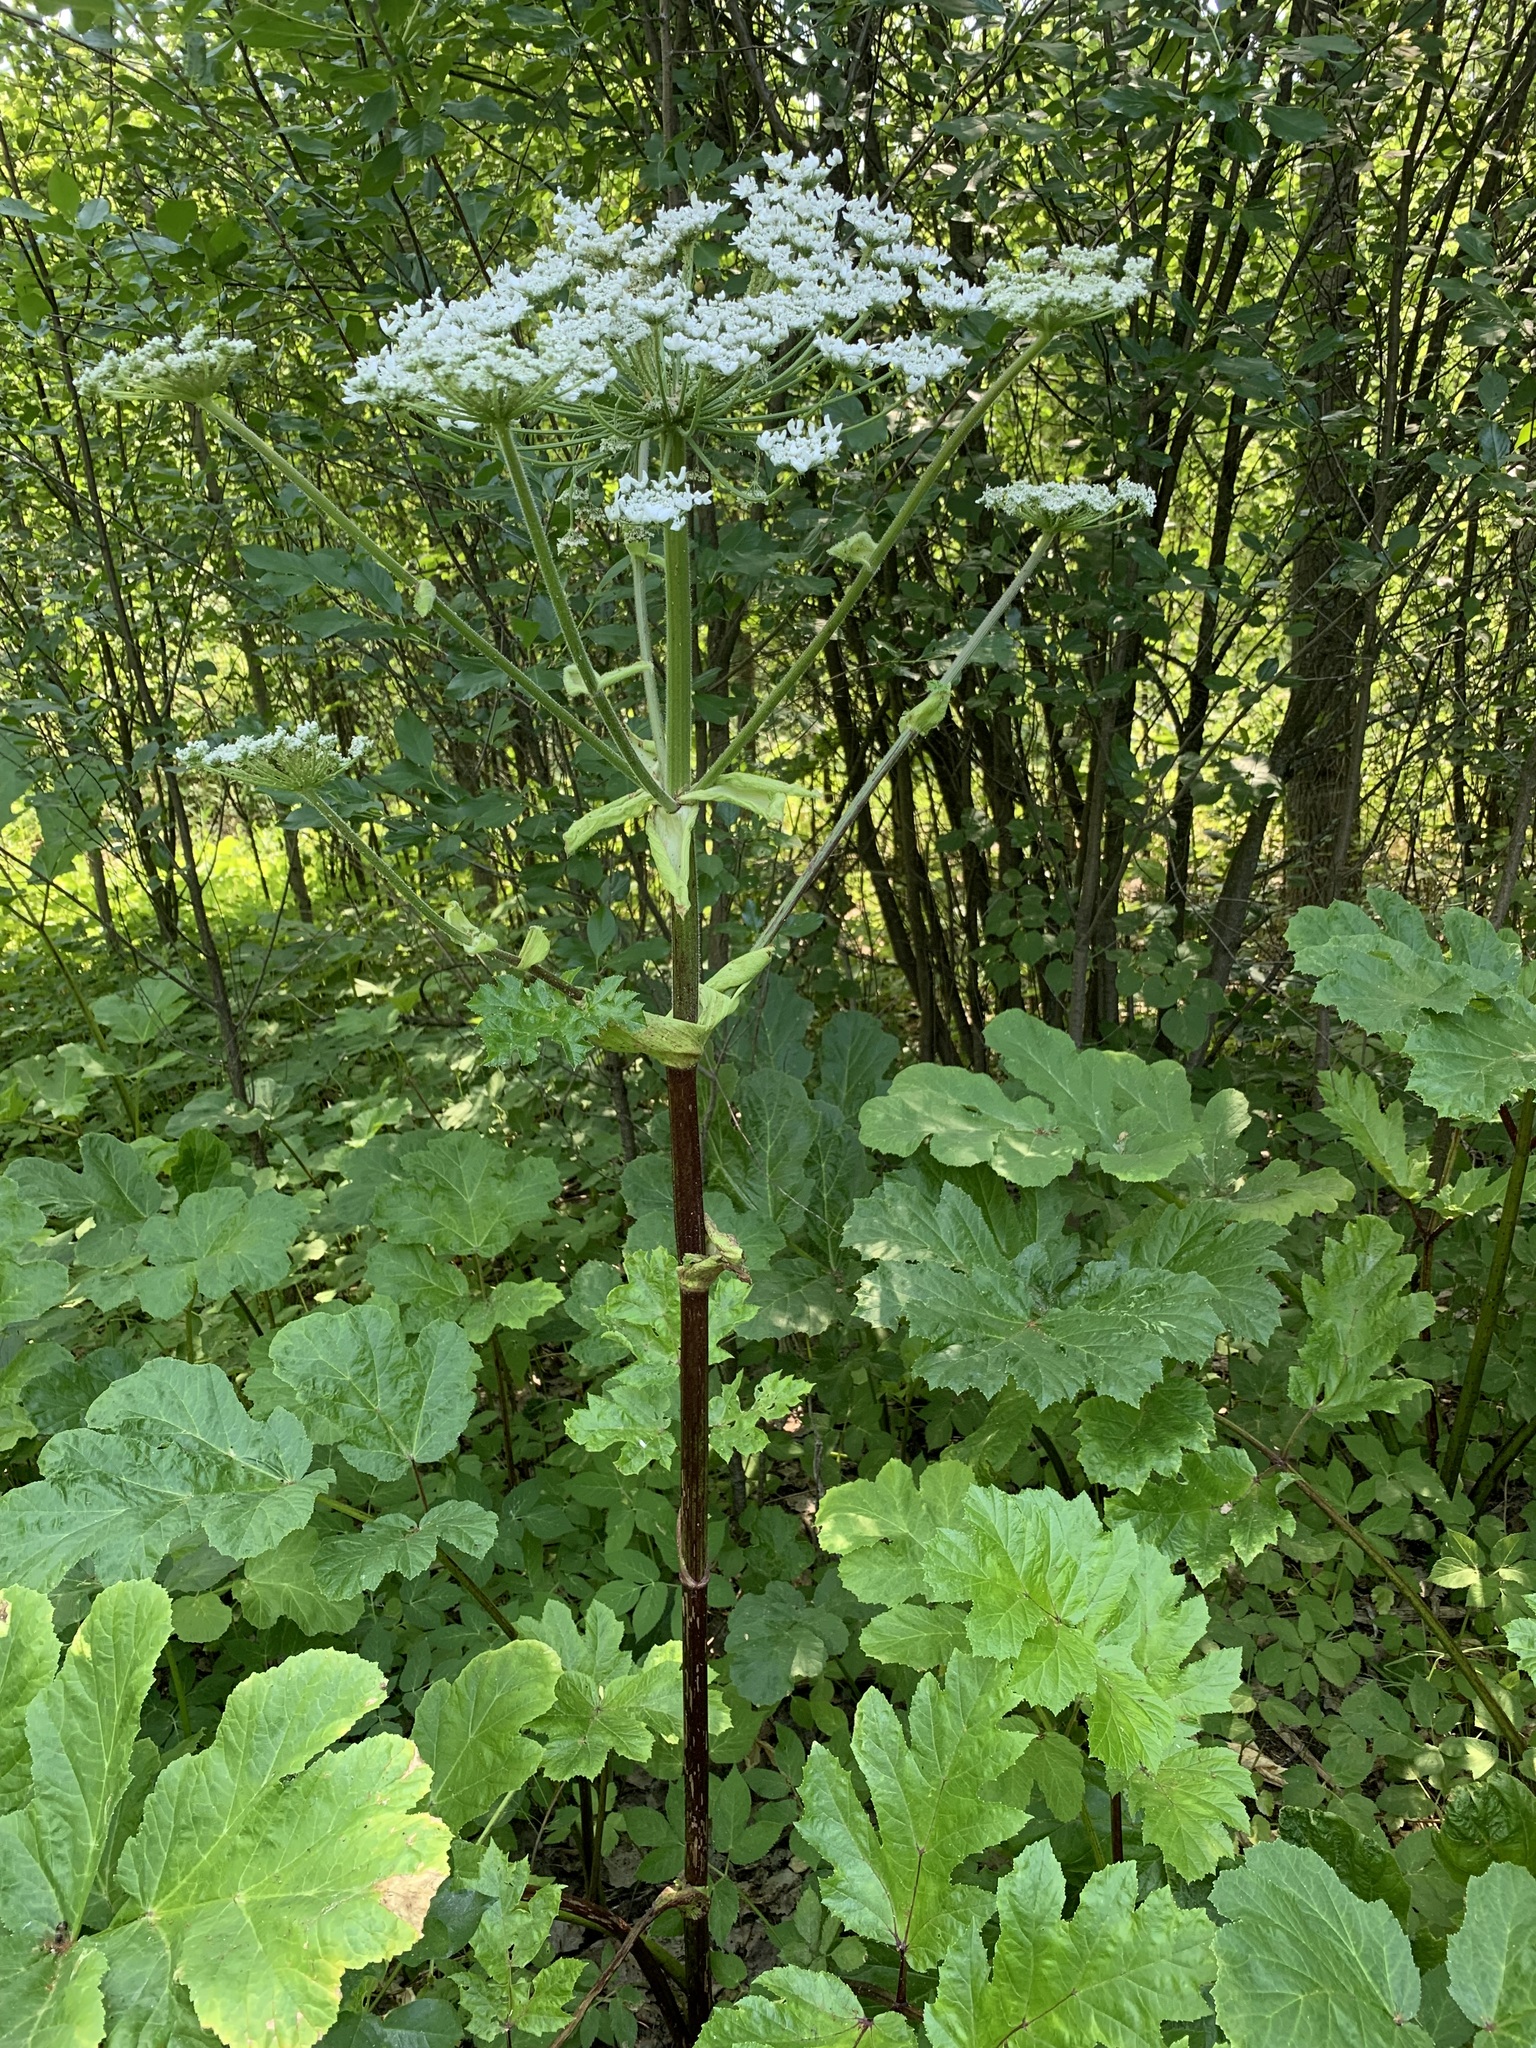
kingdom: Plantae
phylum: Tracheophyta
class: Magnoliopsida
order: Apiales
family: Apiaceae
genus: Heracleum
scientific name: Heracleum sosnowskyi
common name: Sosnowsky's hogweed
